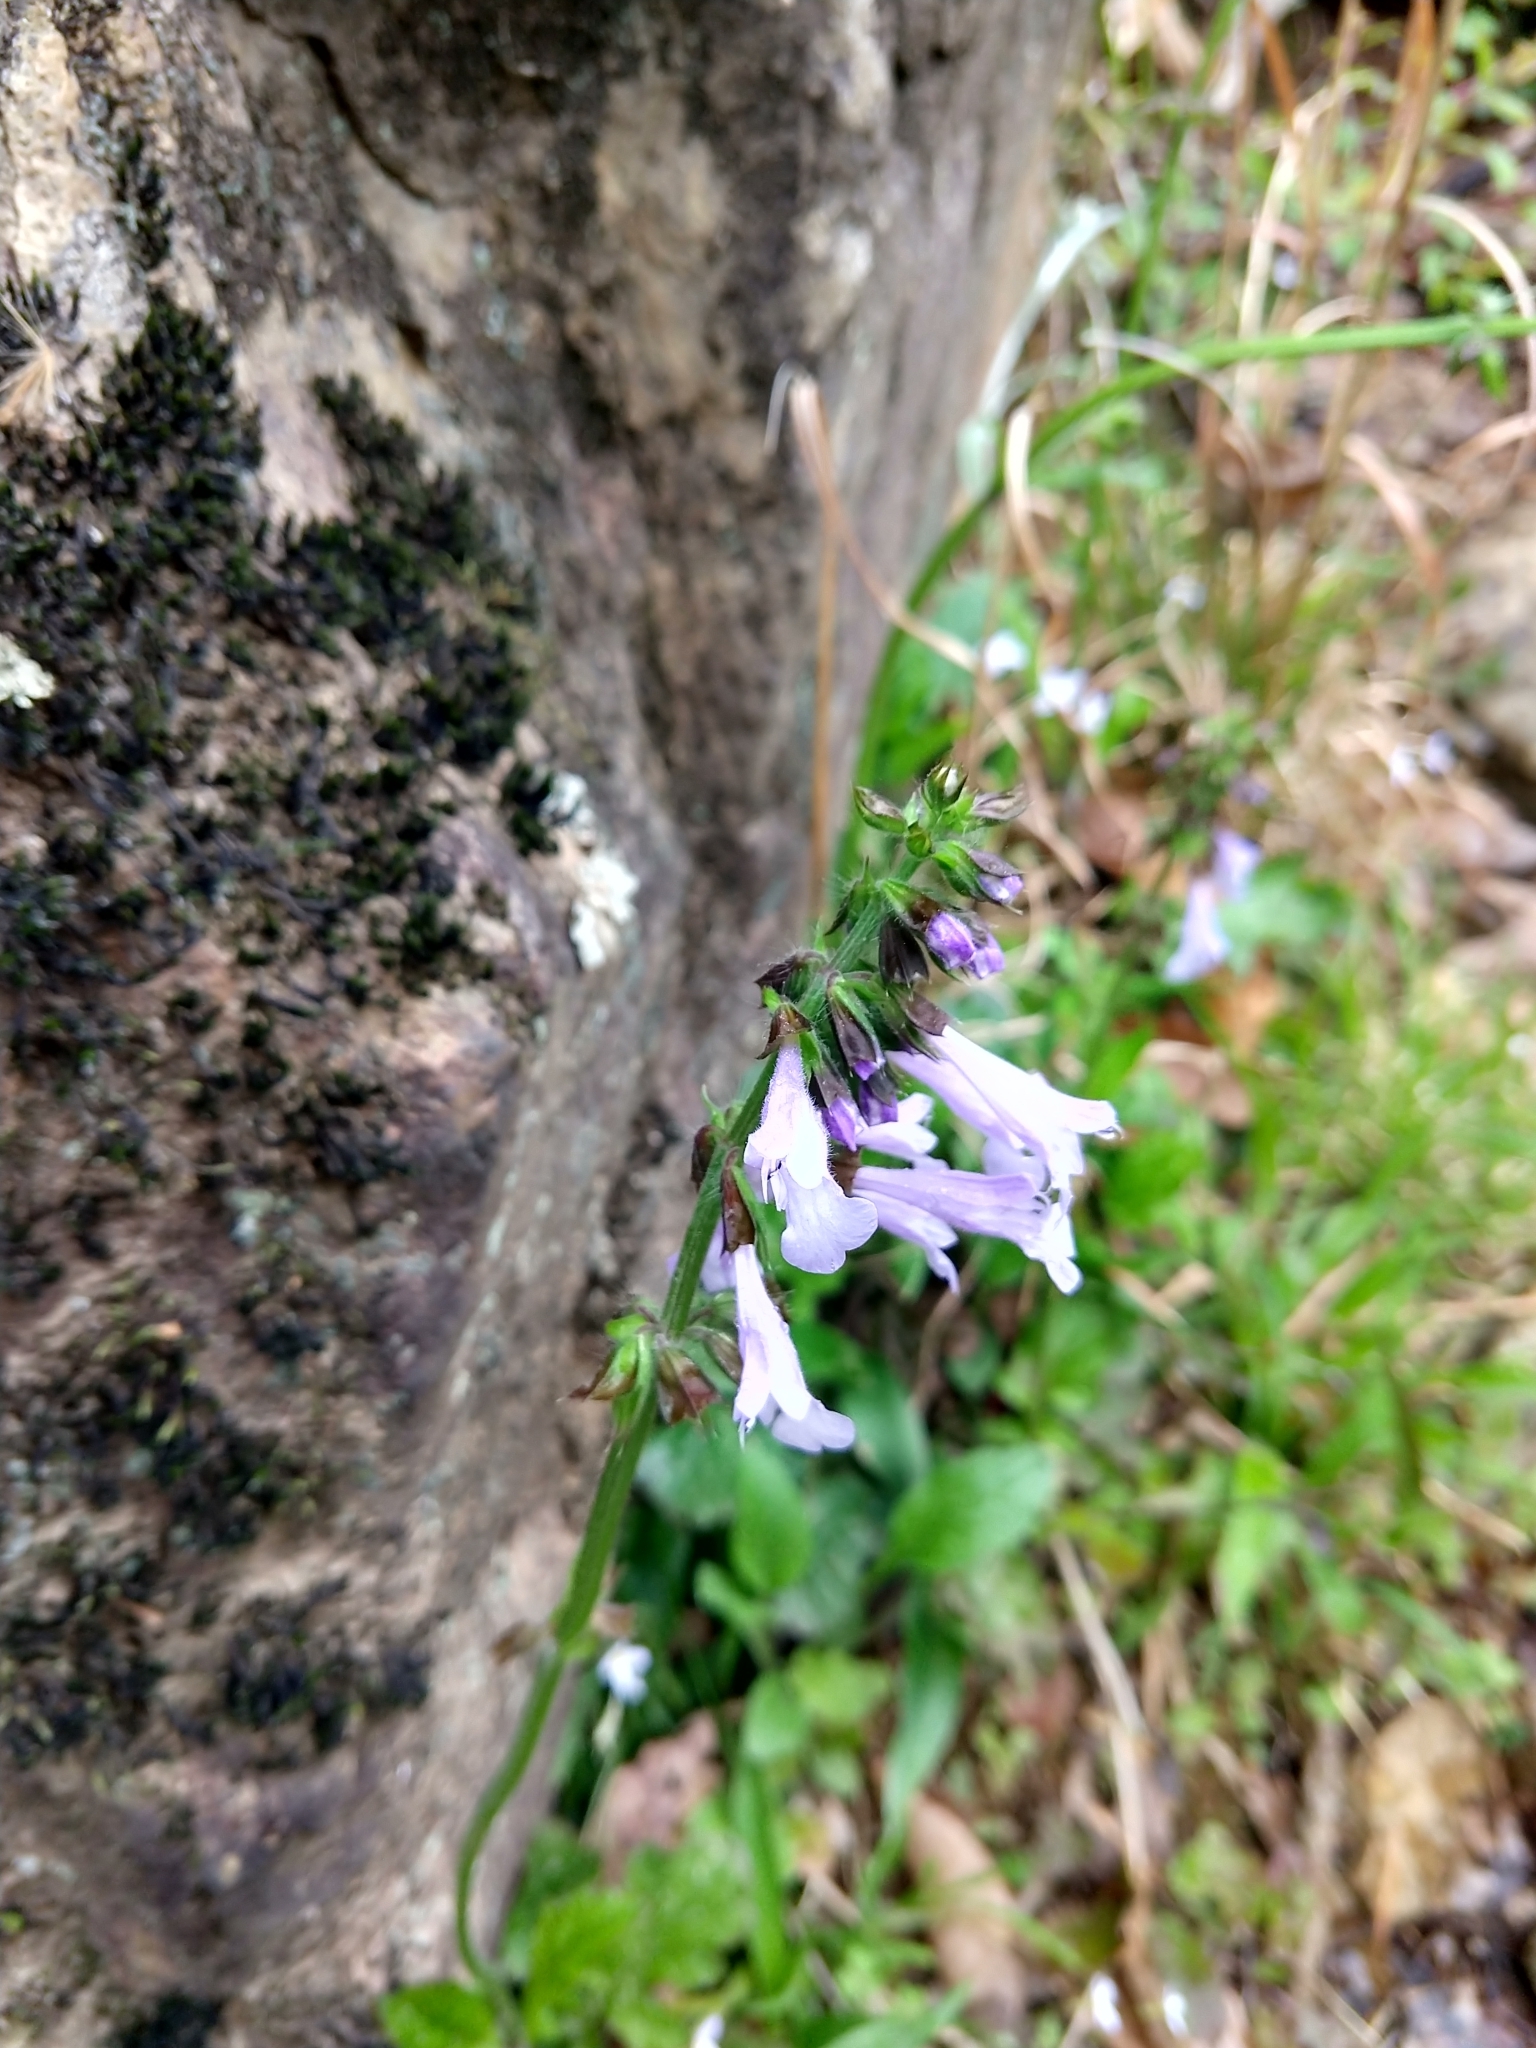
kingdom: Plantae
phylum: Tracheophyta
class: Magnoliopsida
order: Lamiales
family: Lamiaceae
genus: Salvia
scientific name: Salvia lyrata
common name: Cancerweed
